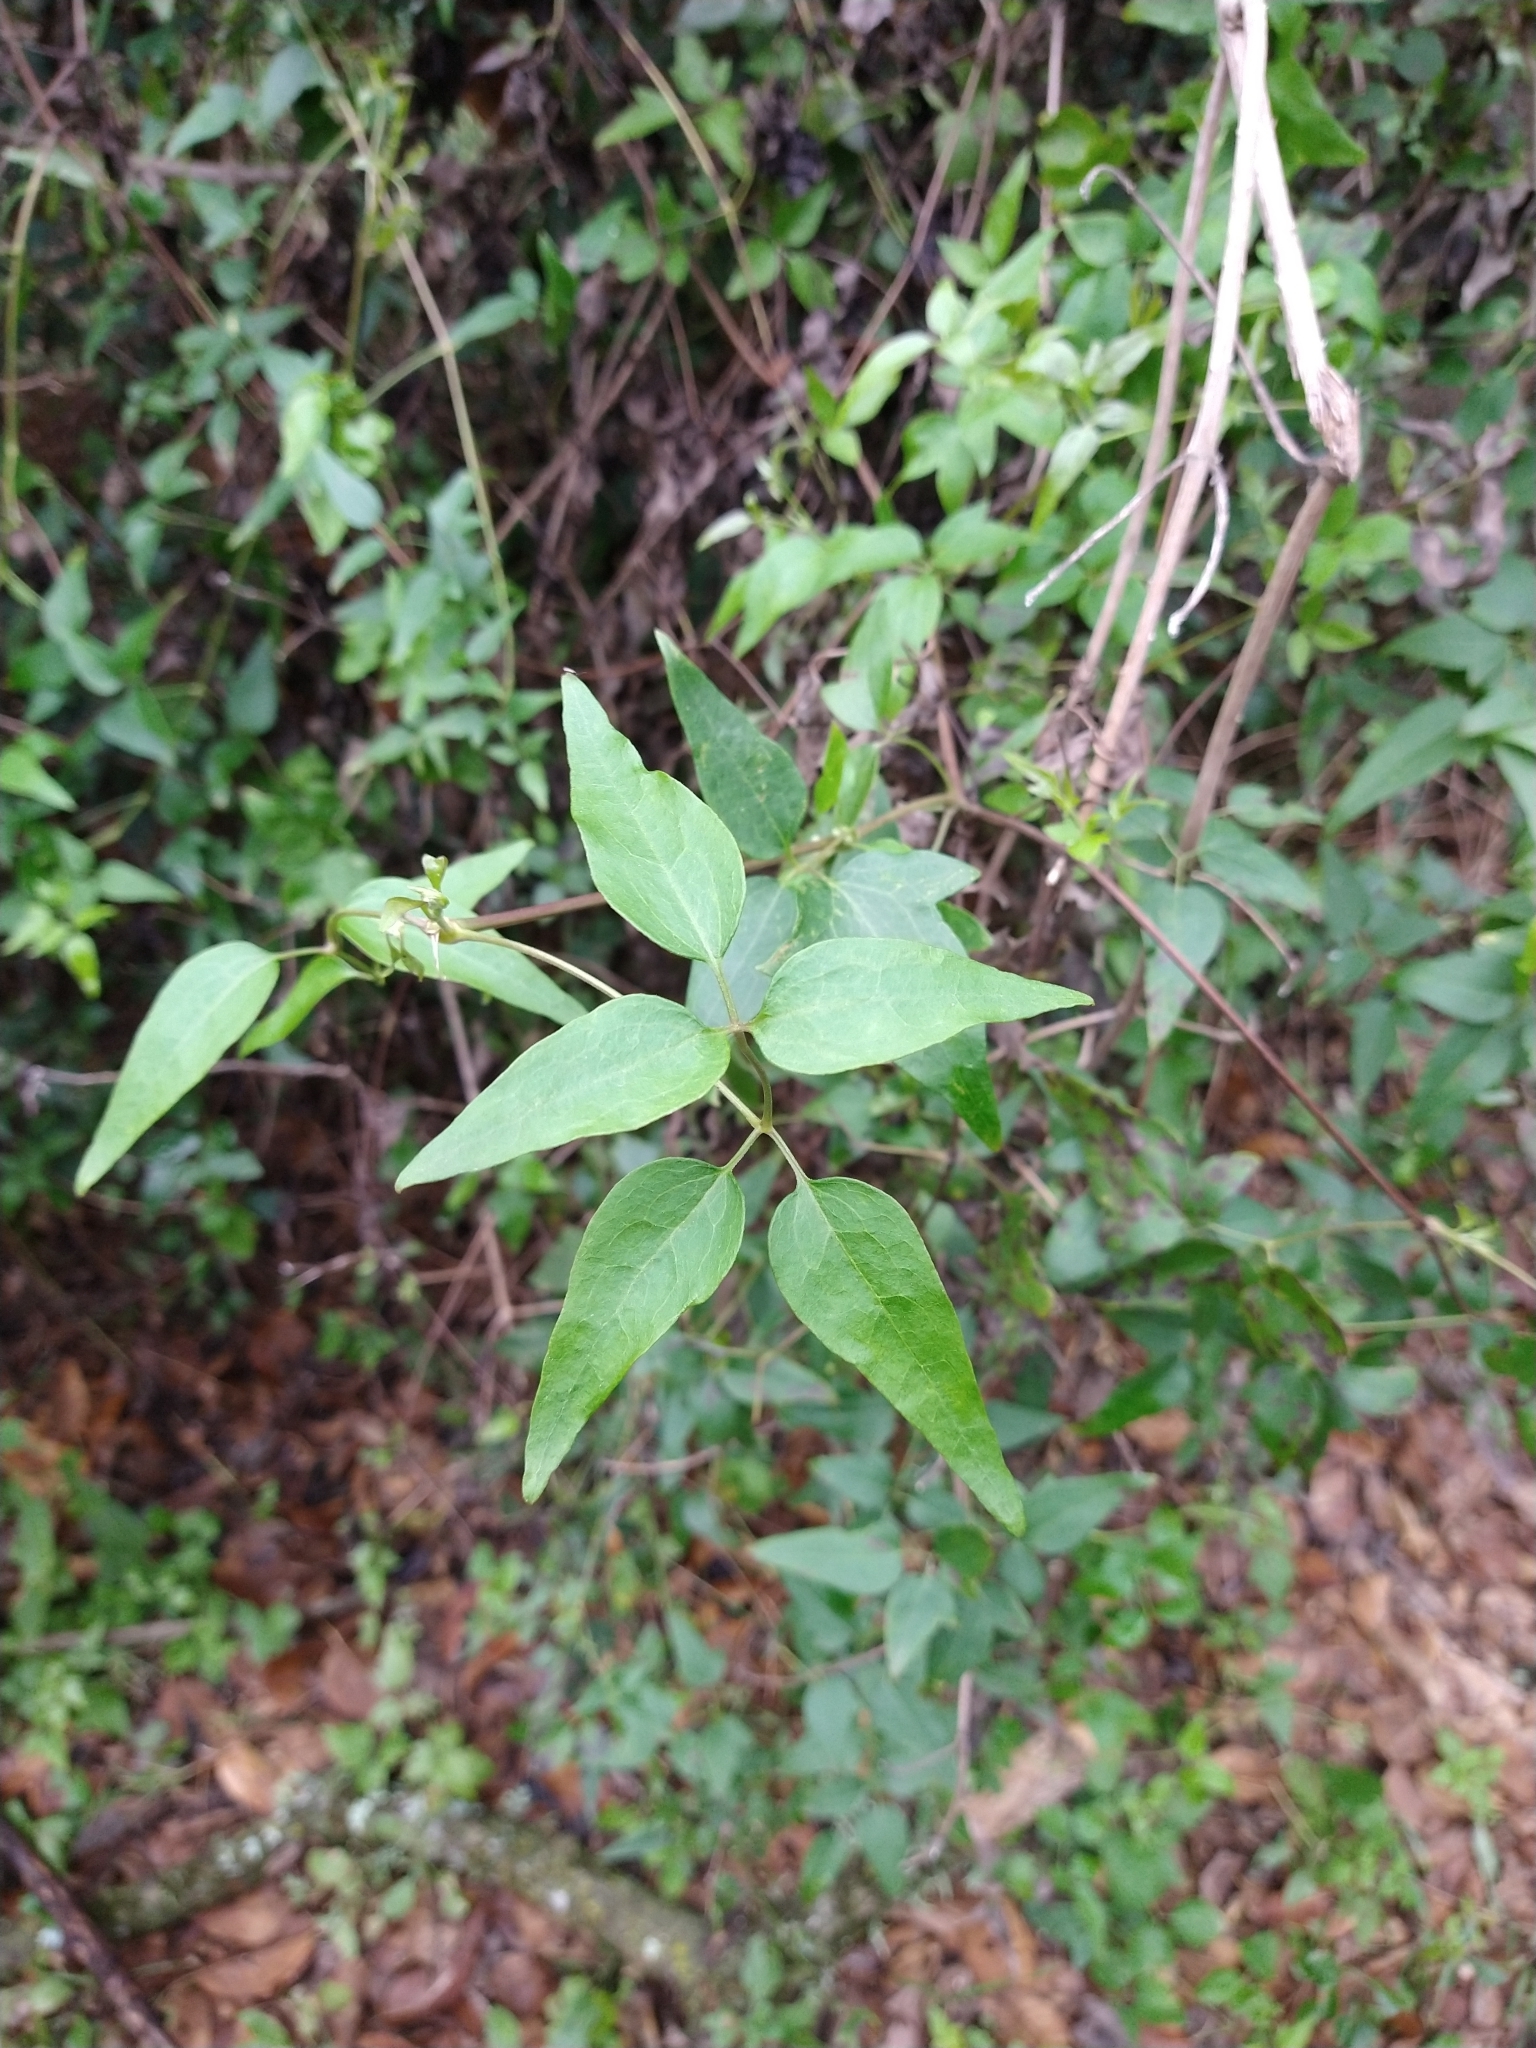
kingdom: Plantae
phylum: Tracheophyta
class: Magnoliopsida
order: Ranunculales
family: Ranunculaceae
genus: Clematis
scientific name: Clematis montevidensis
